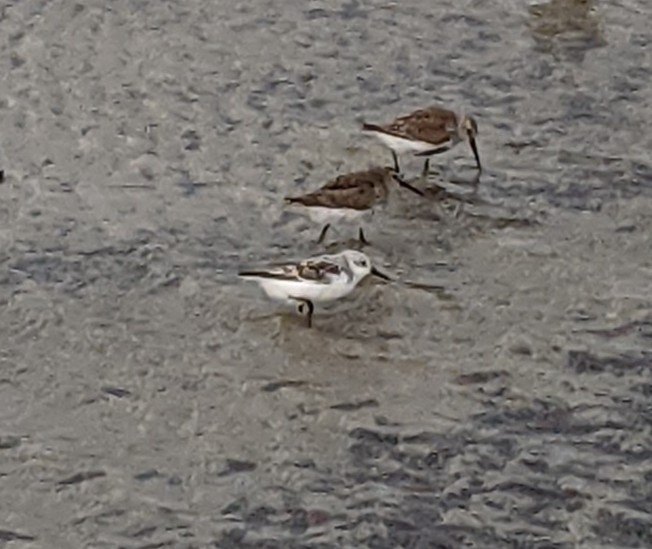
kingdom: Animalia
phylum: Chordata
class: Aves
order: Charadriiformes
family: Scolopacidae
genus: Calidris
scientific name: Calidris alba
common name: Sanderling
